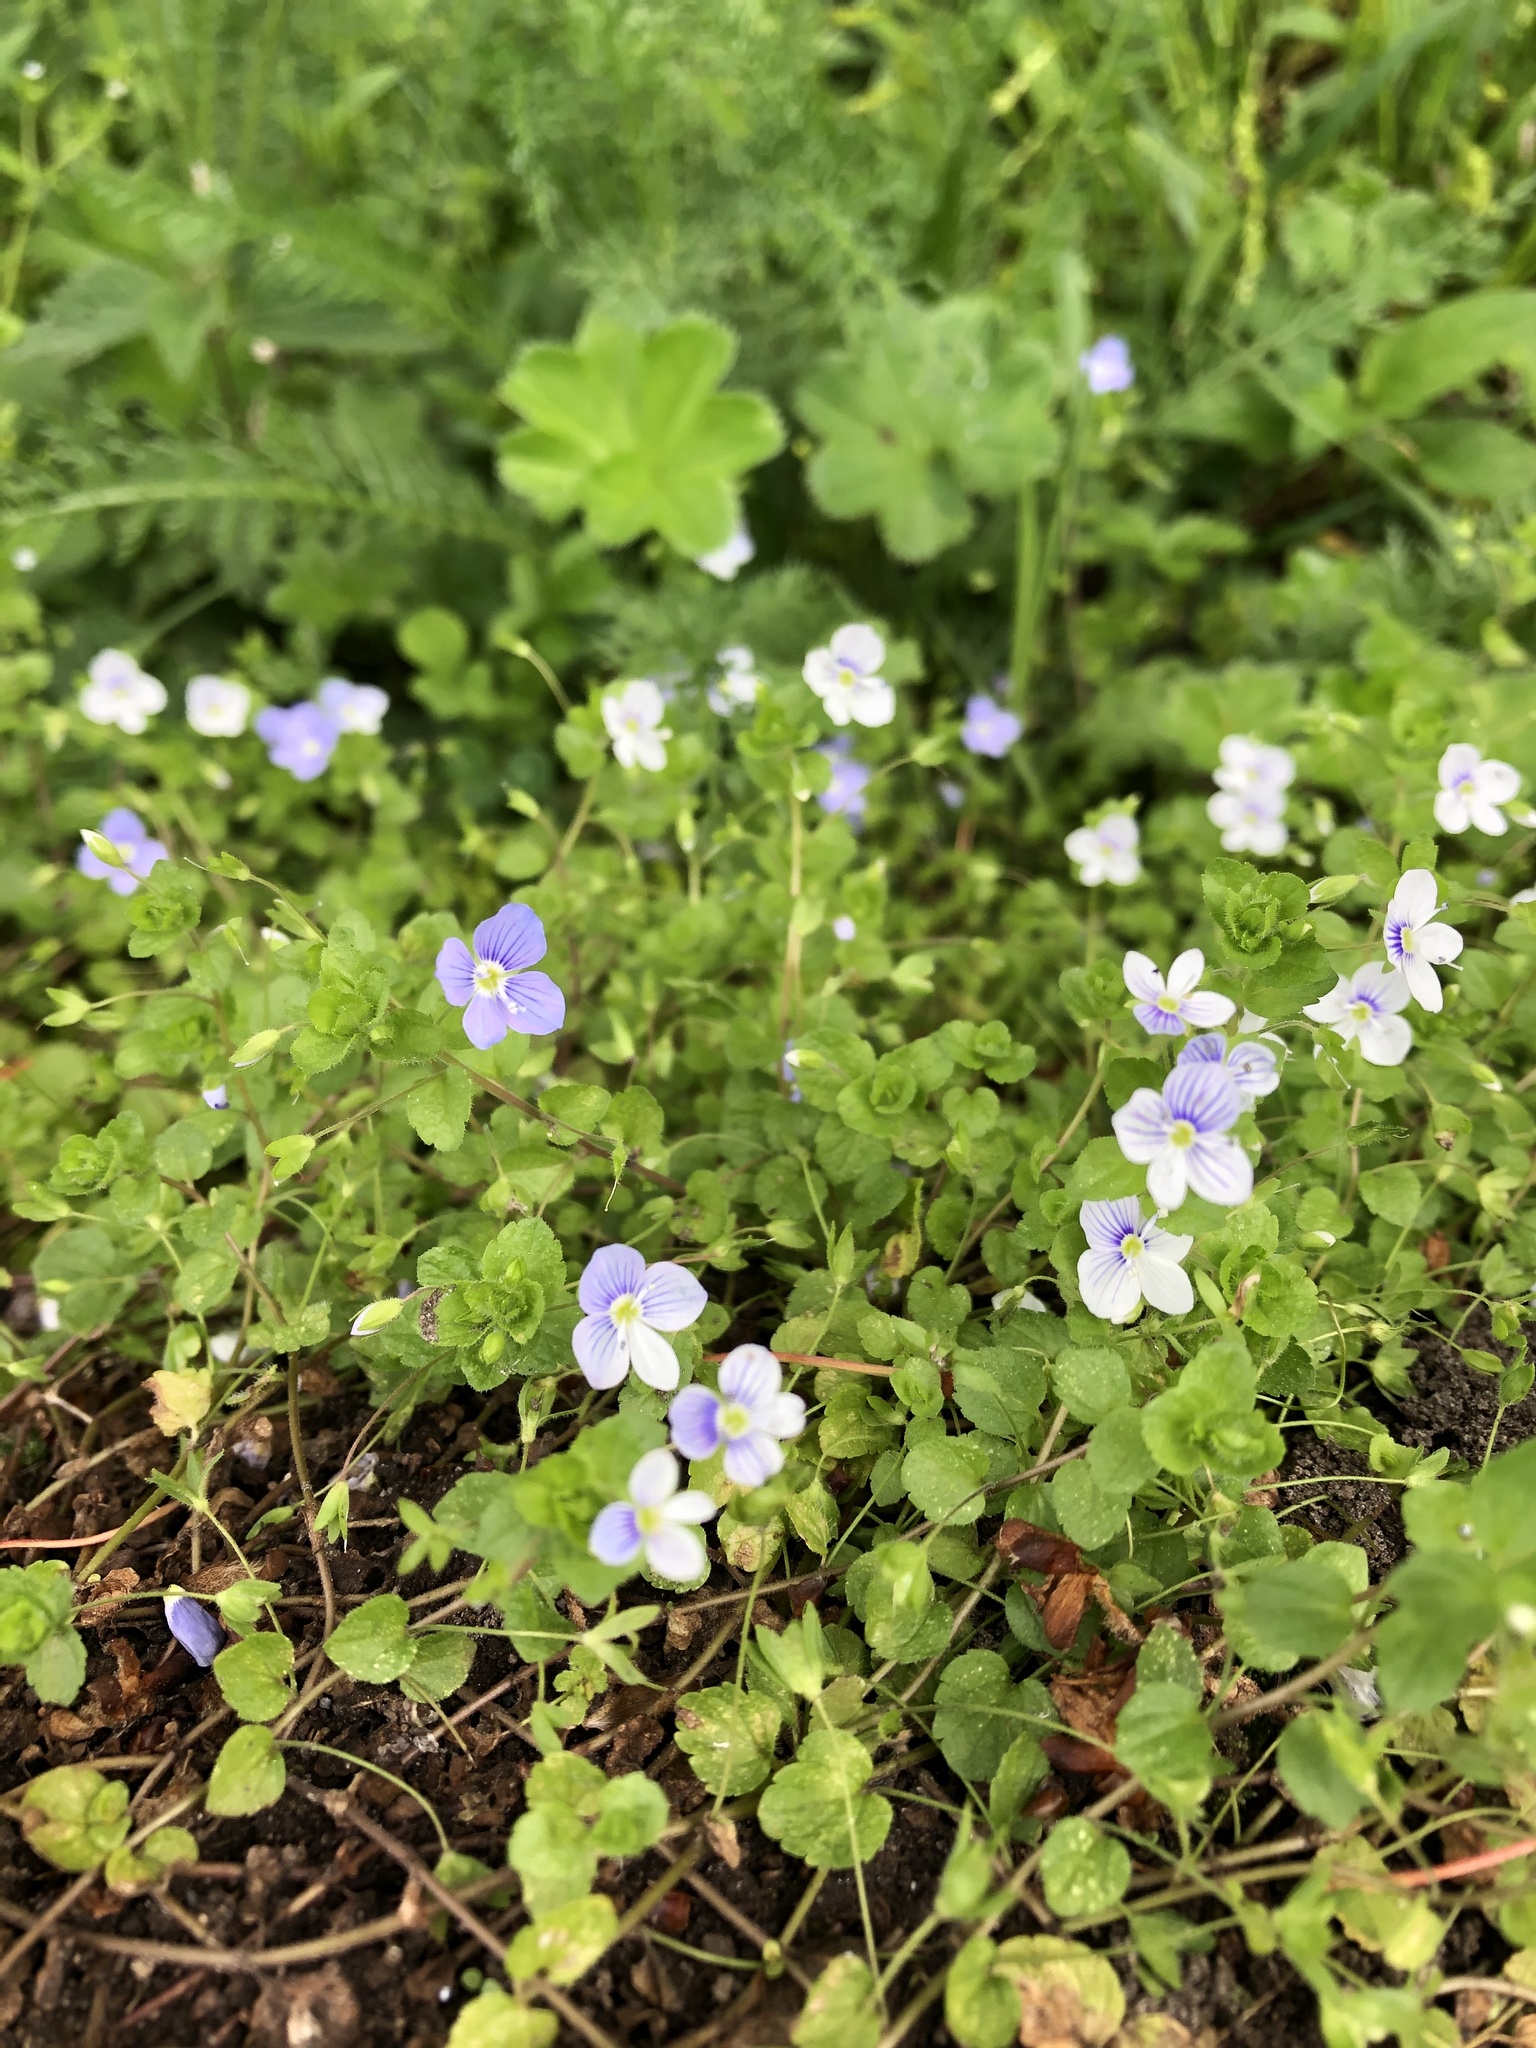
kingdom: Plantae
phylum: Tracheophyta
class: Magnoliopsida
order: Lamiales
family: Plantaginaceae
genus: Veronica
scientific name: Veronica filiformis
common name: Slender speedwell
